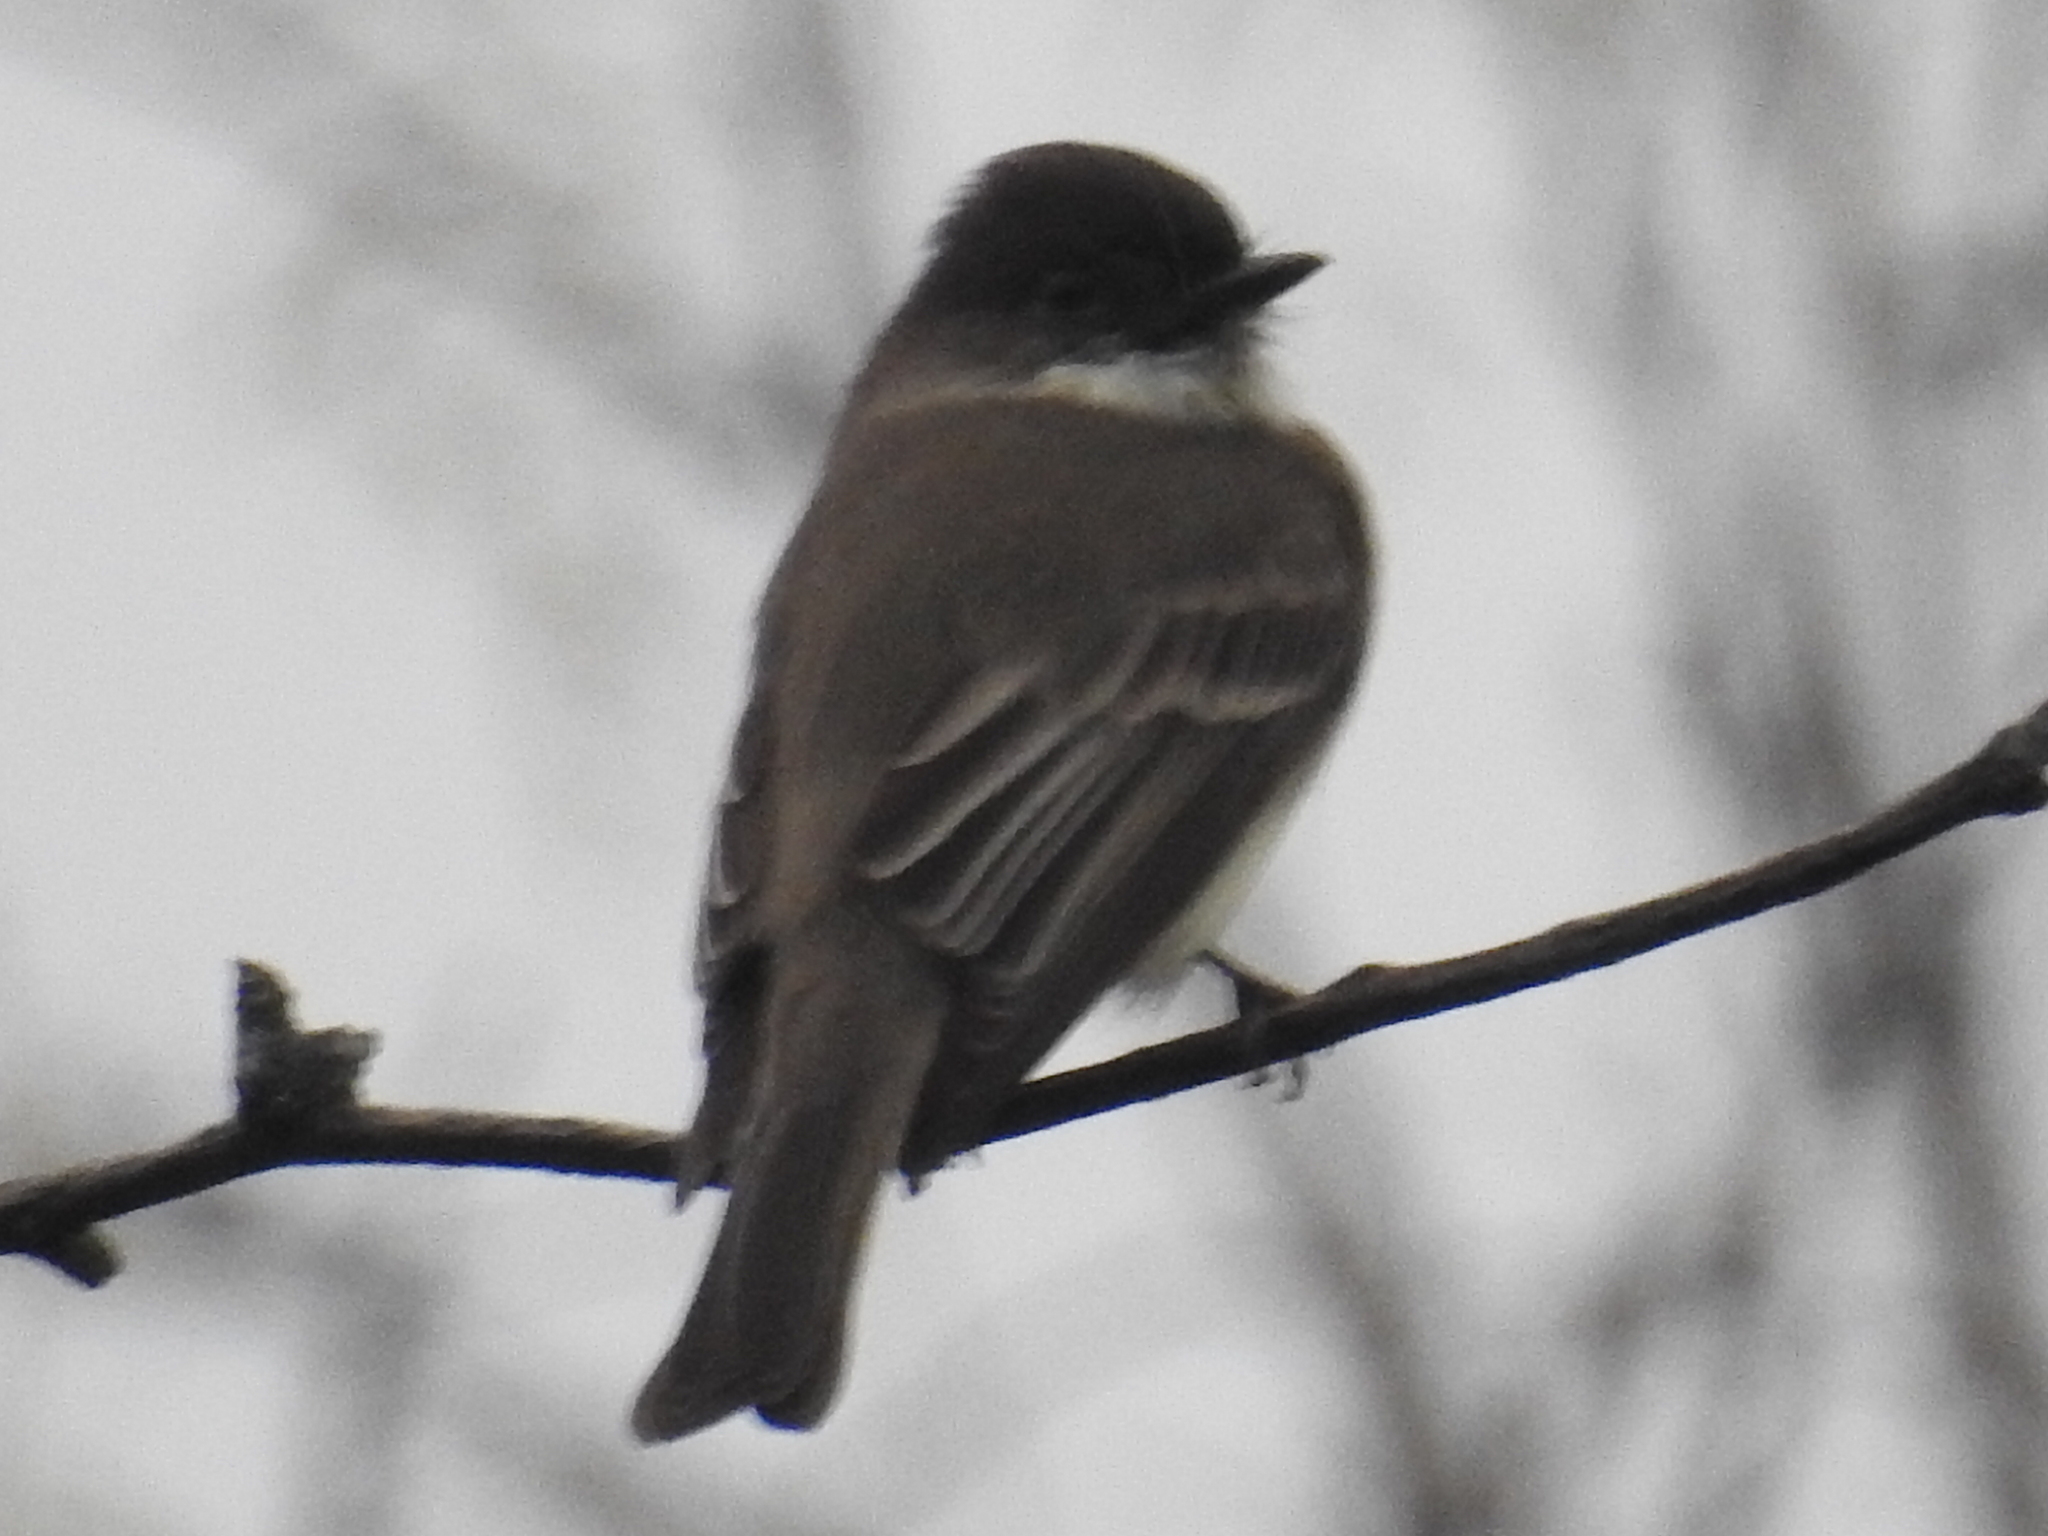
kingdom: Animalia
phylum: Chordata
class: Aves
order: Passeriformes
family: Tyrannidae
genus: Sayornis
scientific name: Sayornis phoebe
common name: Eastern phoebe
